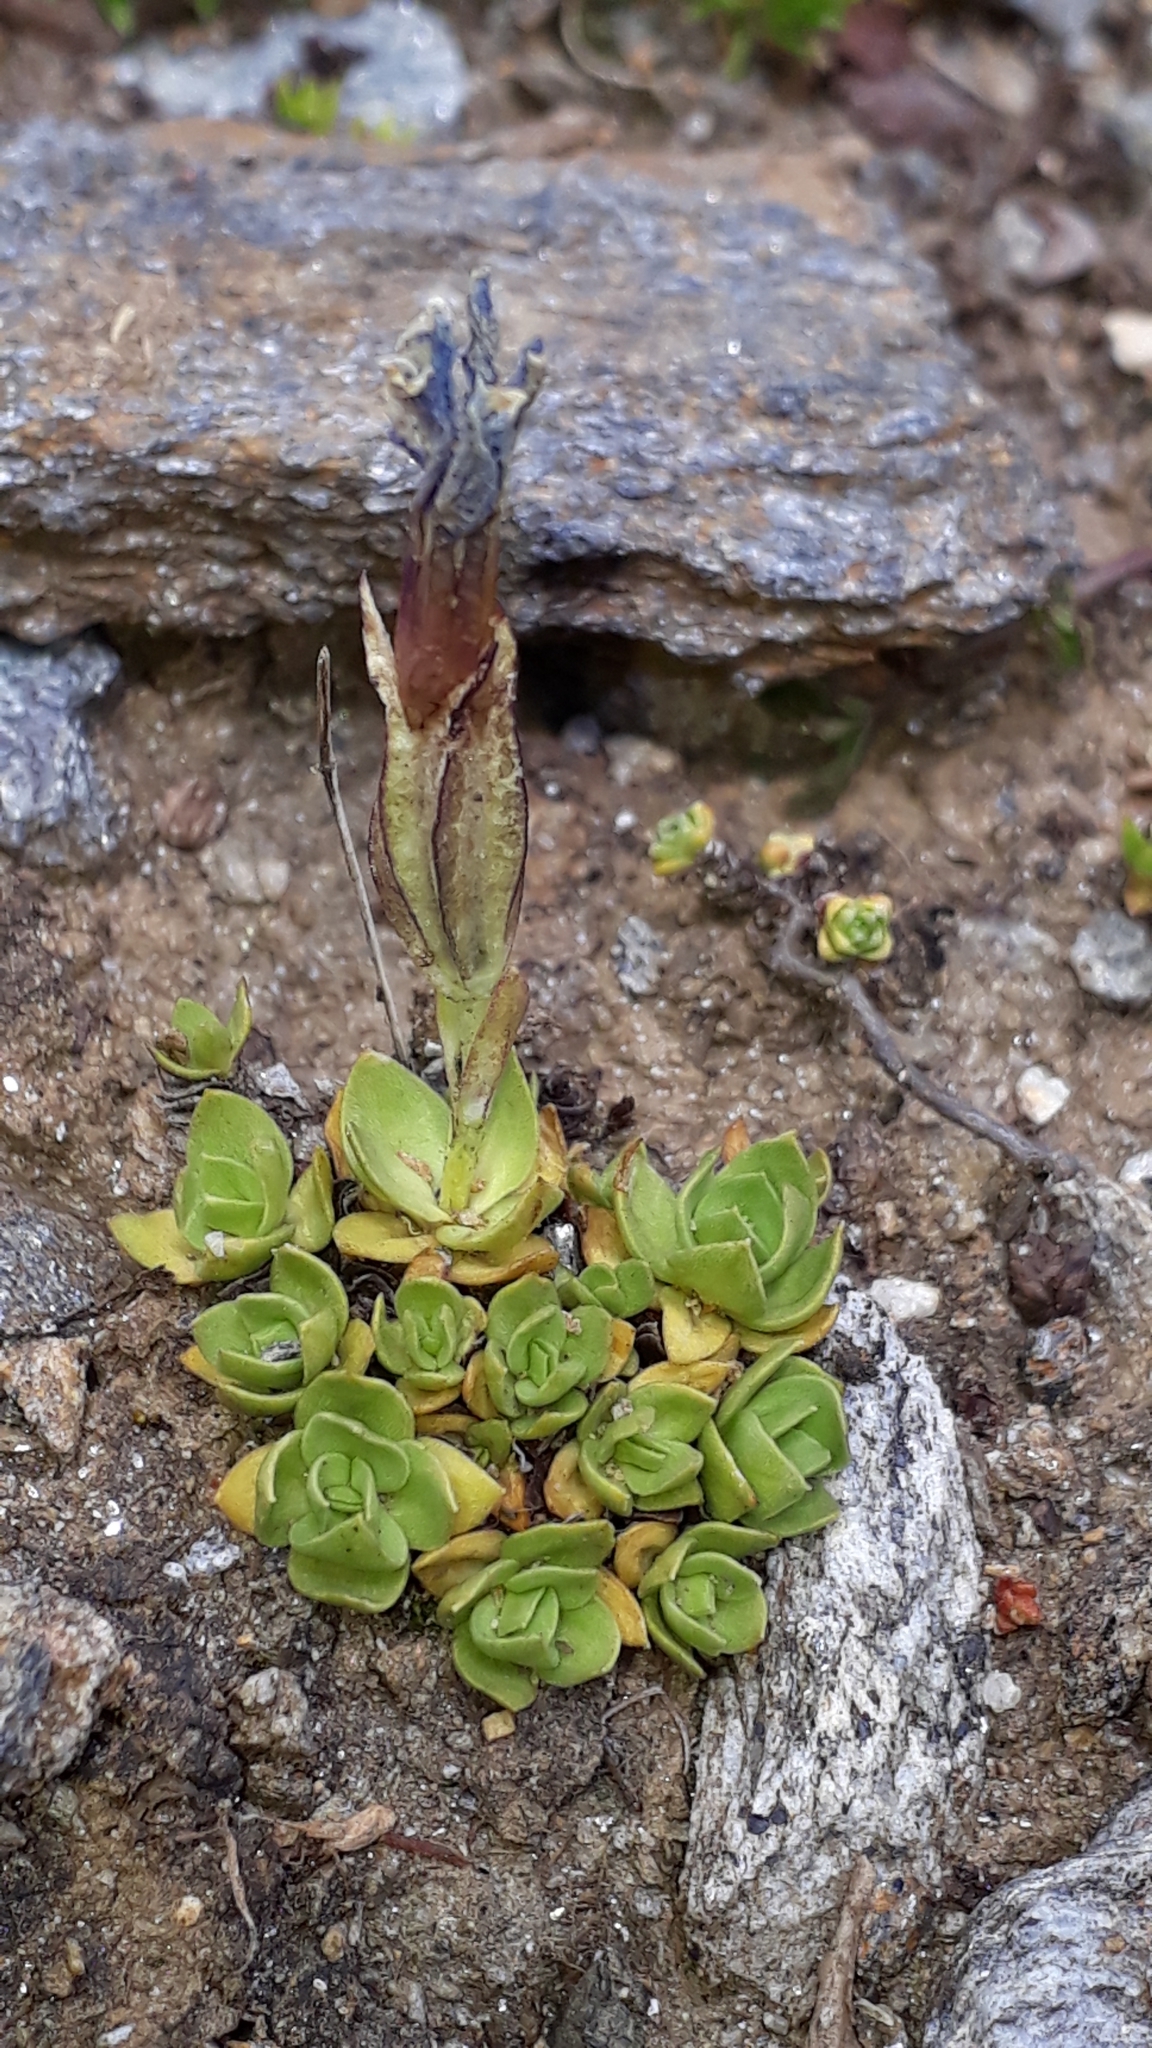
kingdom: Plantae
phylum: Tracheophyta
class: Magnoliopsida
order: Gentianales
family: Gentianaceae
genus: Gentiana
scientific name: Gentiana terglouensis
